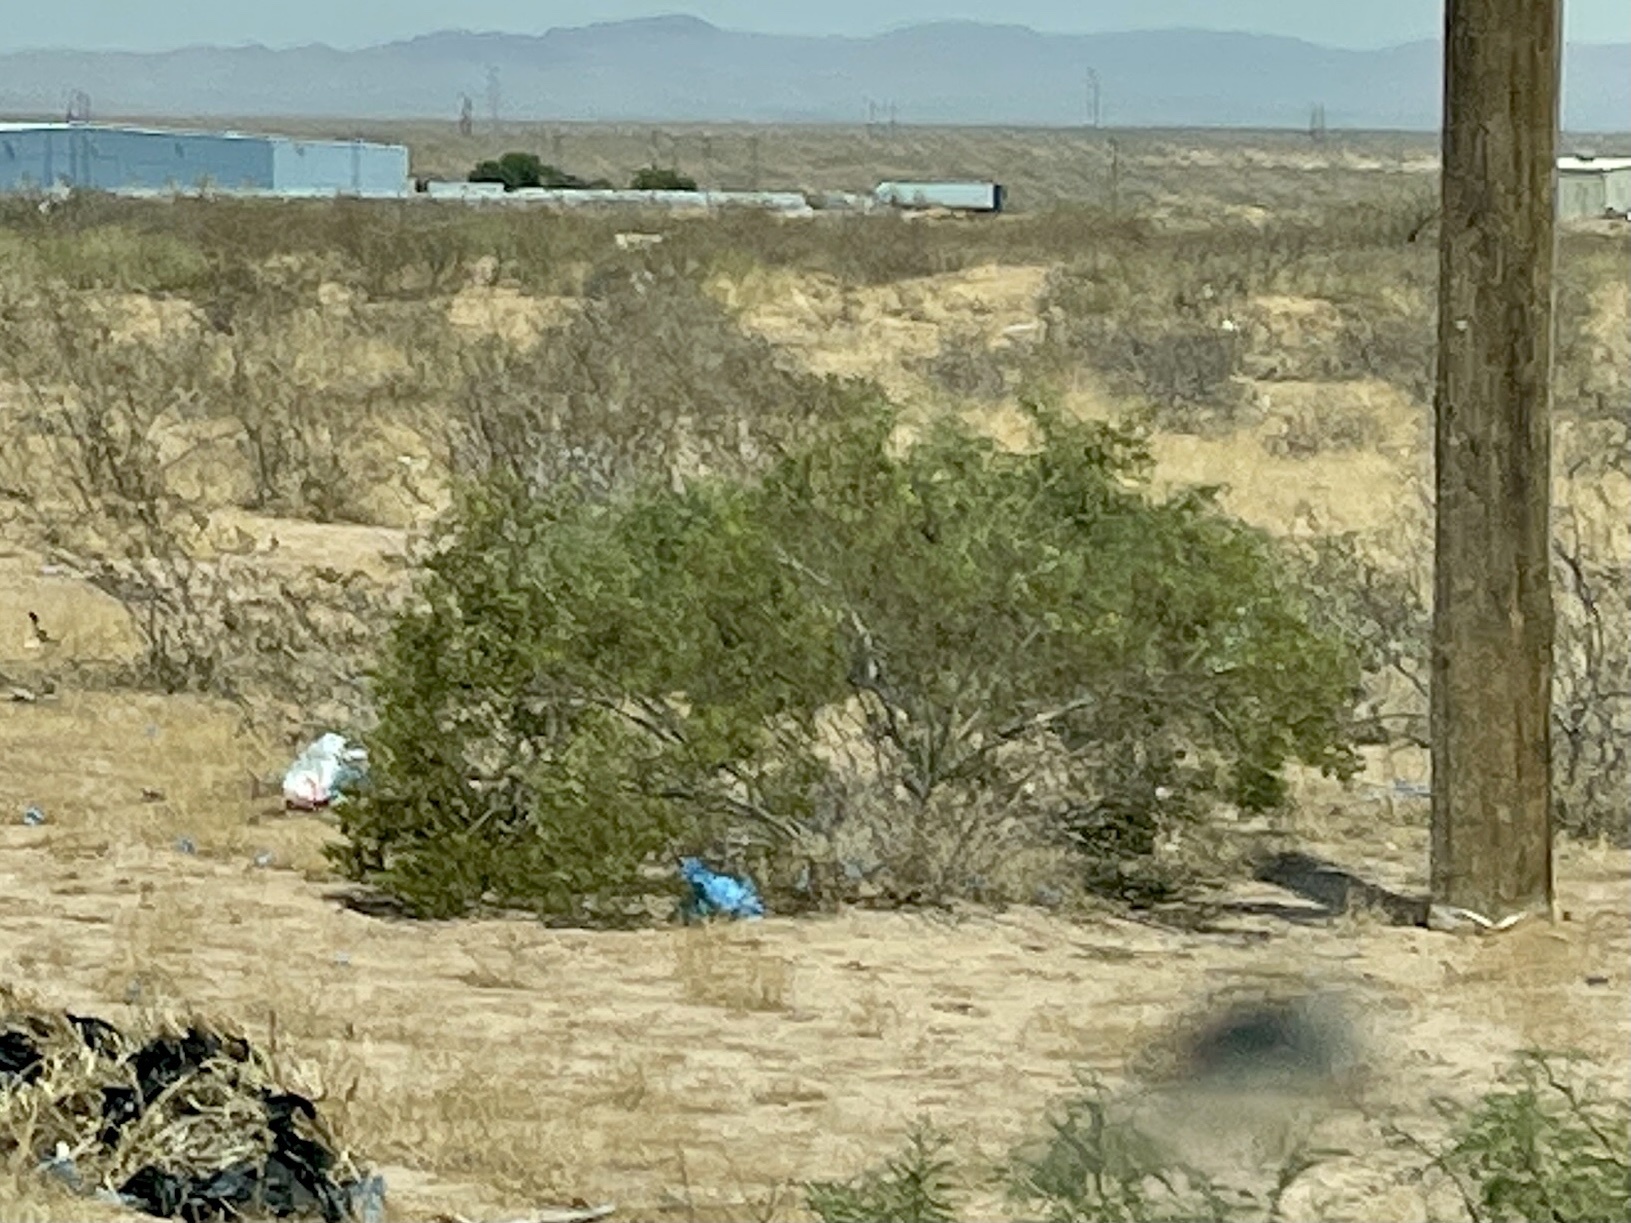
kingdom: Plantae
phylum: Tracheophyta
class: Magnoliopsida
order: Zygophyllales
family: Zygophyllaceae
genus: Larrea
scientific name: Larrea tridentata
